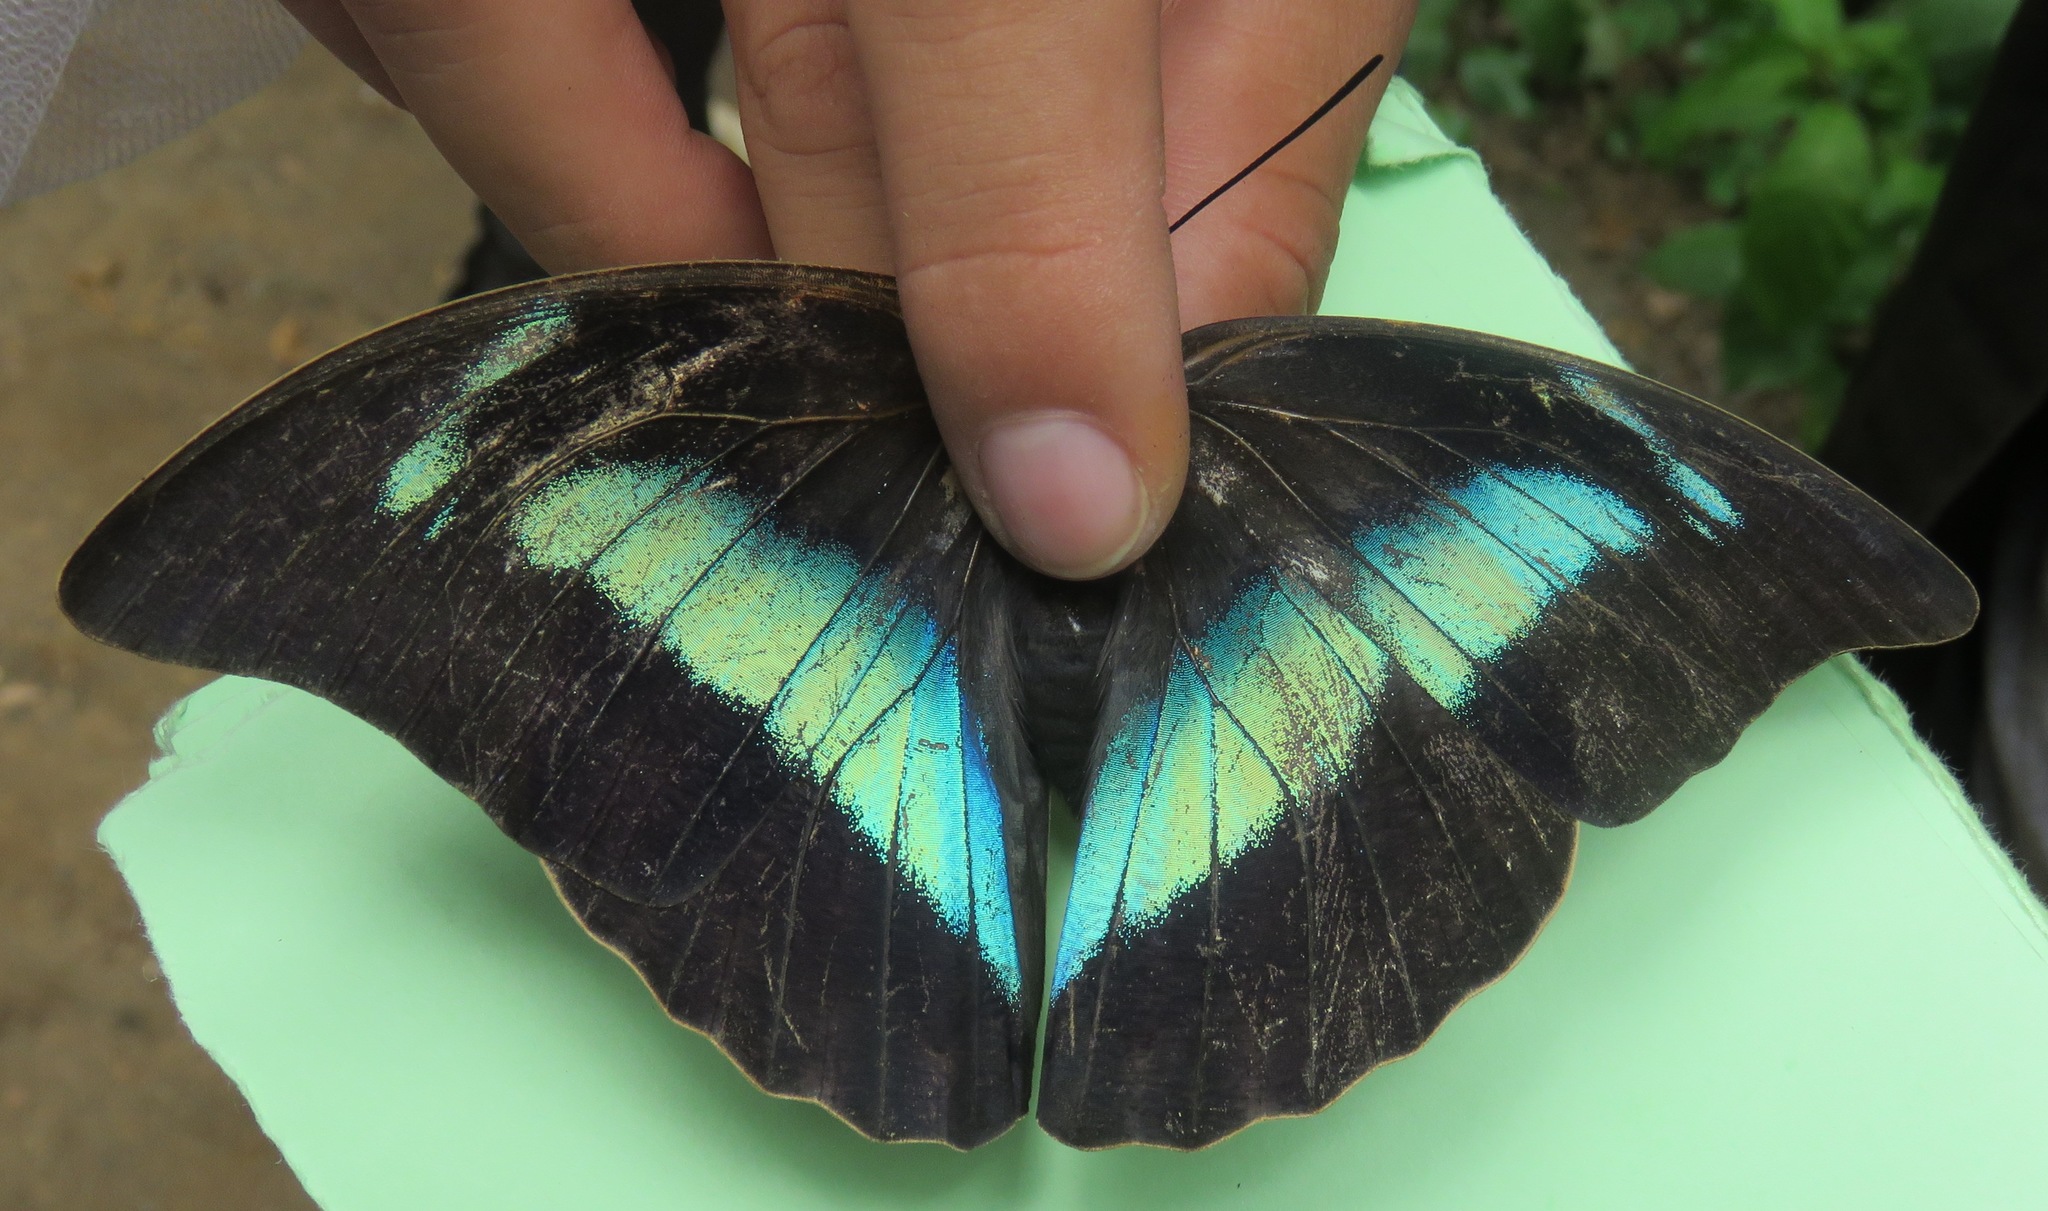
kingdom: Animalia
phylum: Arthropoda
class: Insecta
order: Lepidoptera
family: Nymphalidae
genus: Prepona
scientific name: Prepona Archaeoprepona demophon
